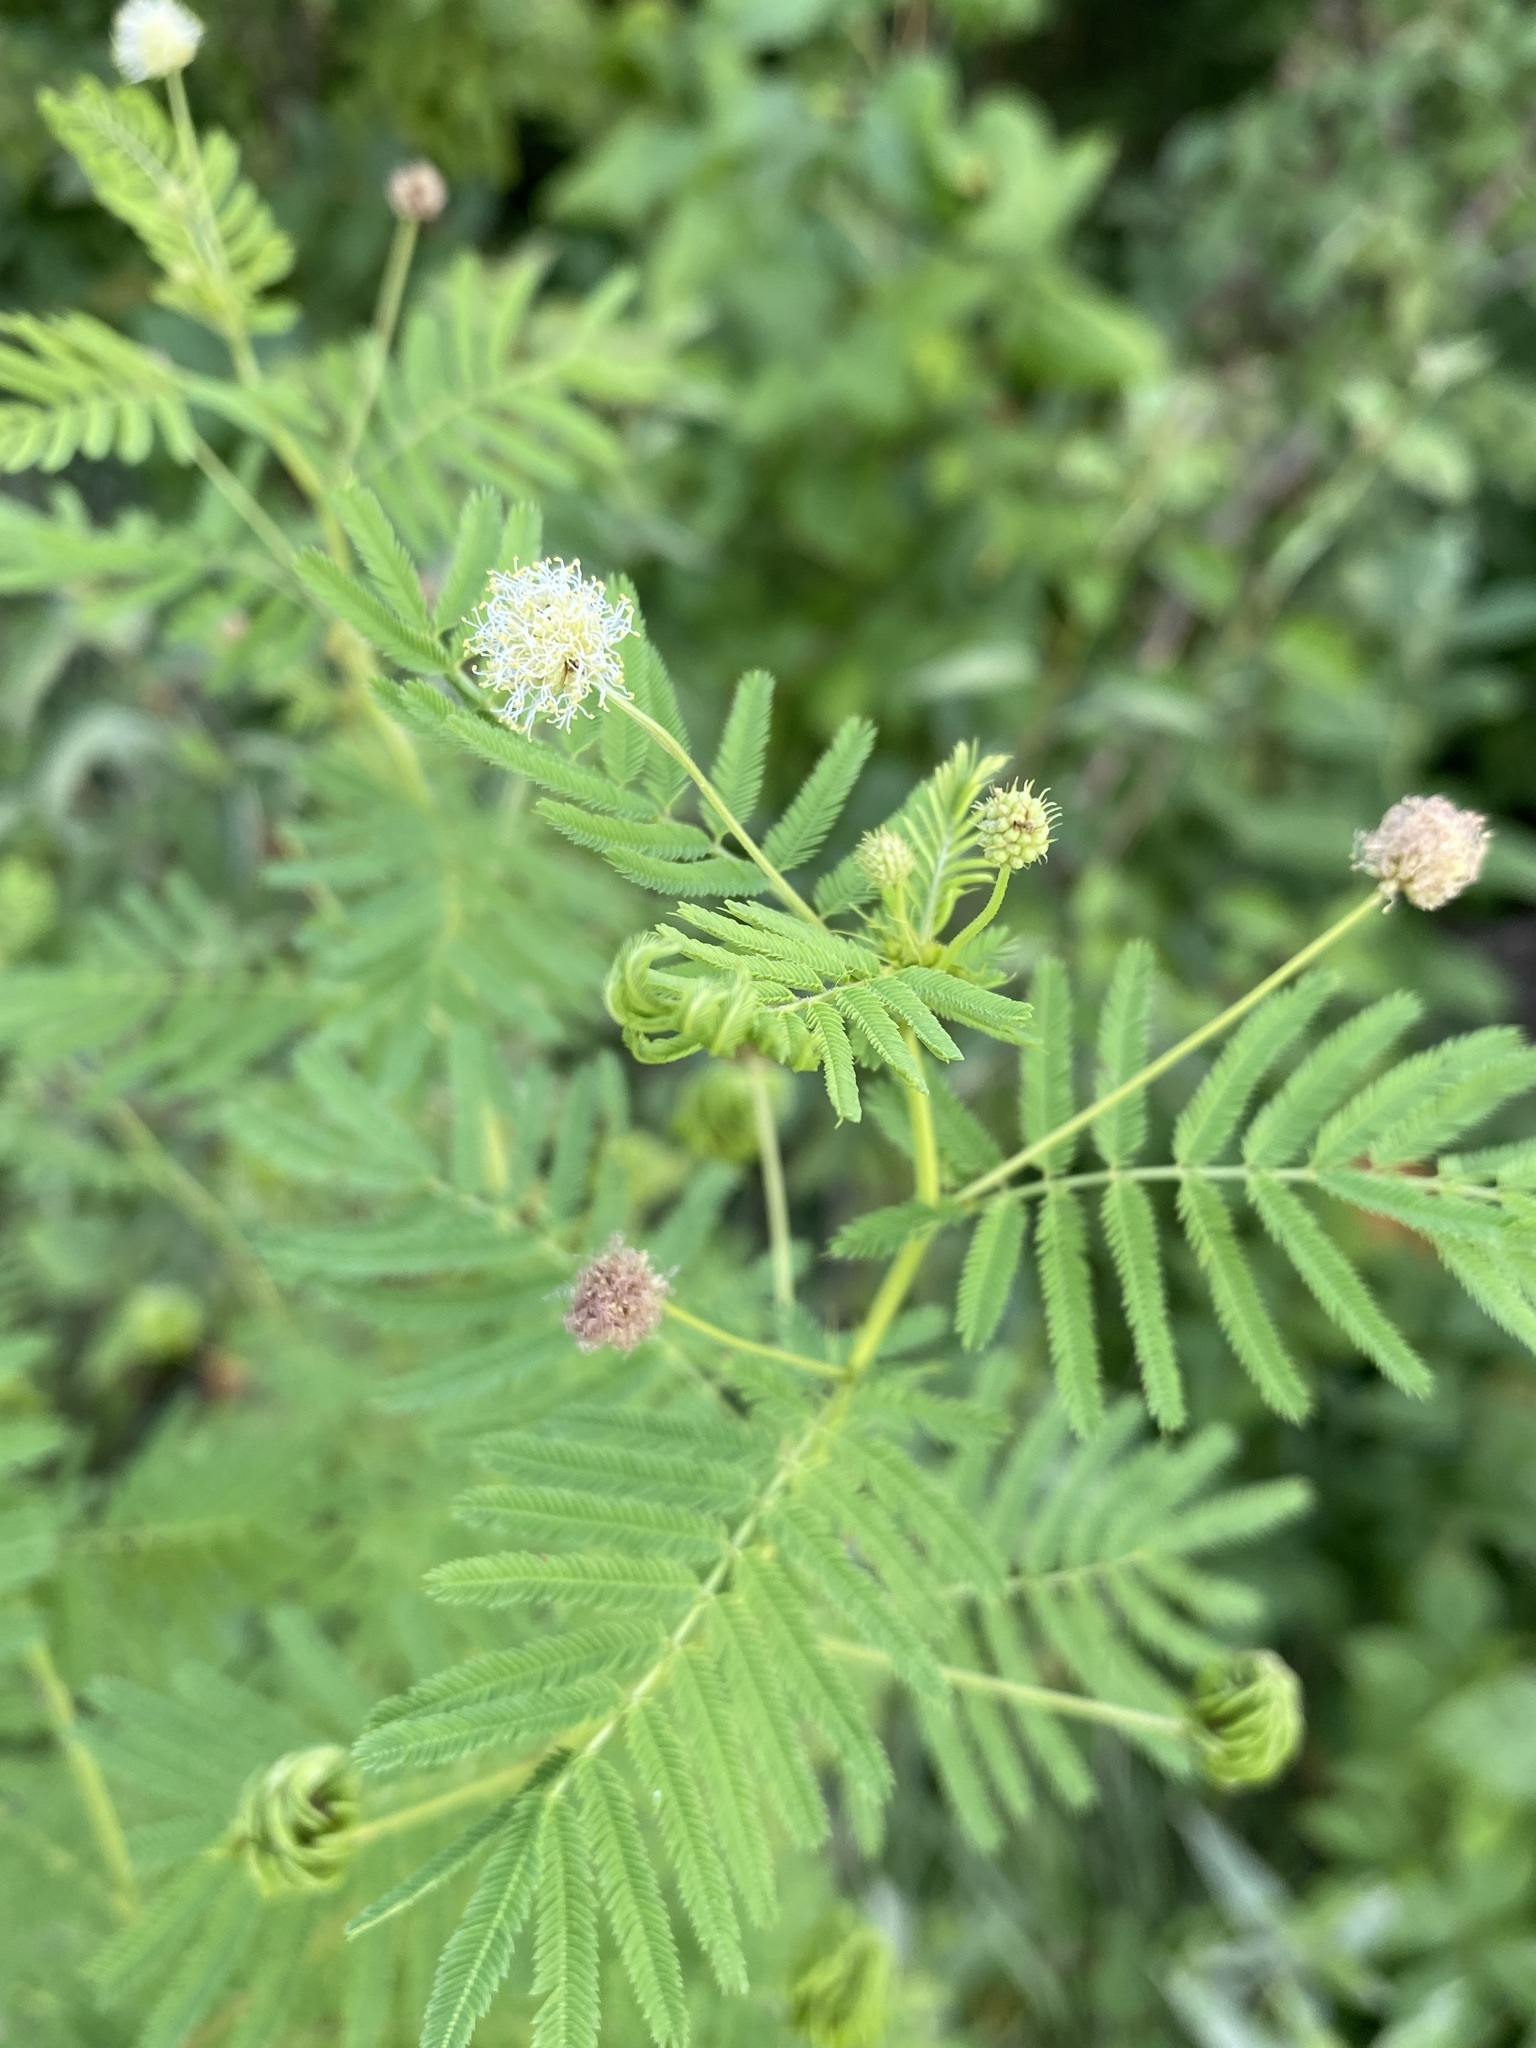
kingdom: Plantae
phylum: Tracheophyta
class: Magnoliopsida
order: Fabales
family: Fabaceae
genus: Desmanthus
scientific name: Desmanthus illinoensis
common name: Illinois bundle-flower
